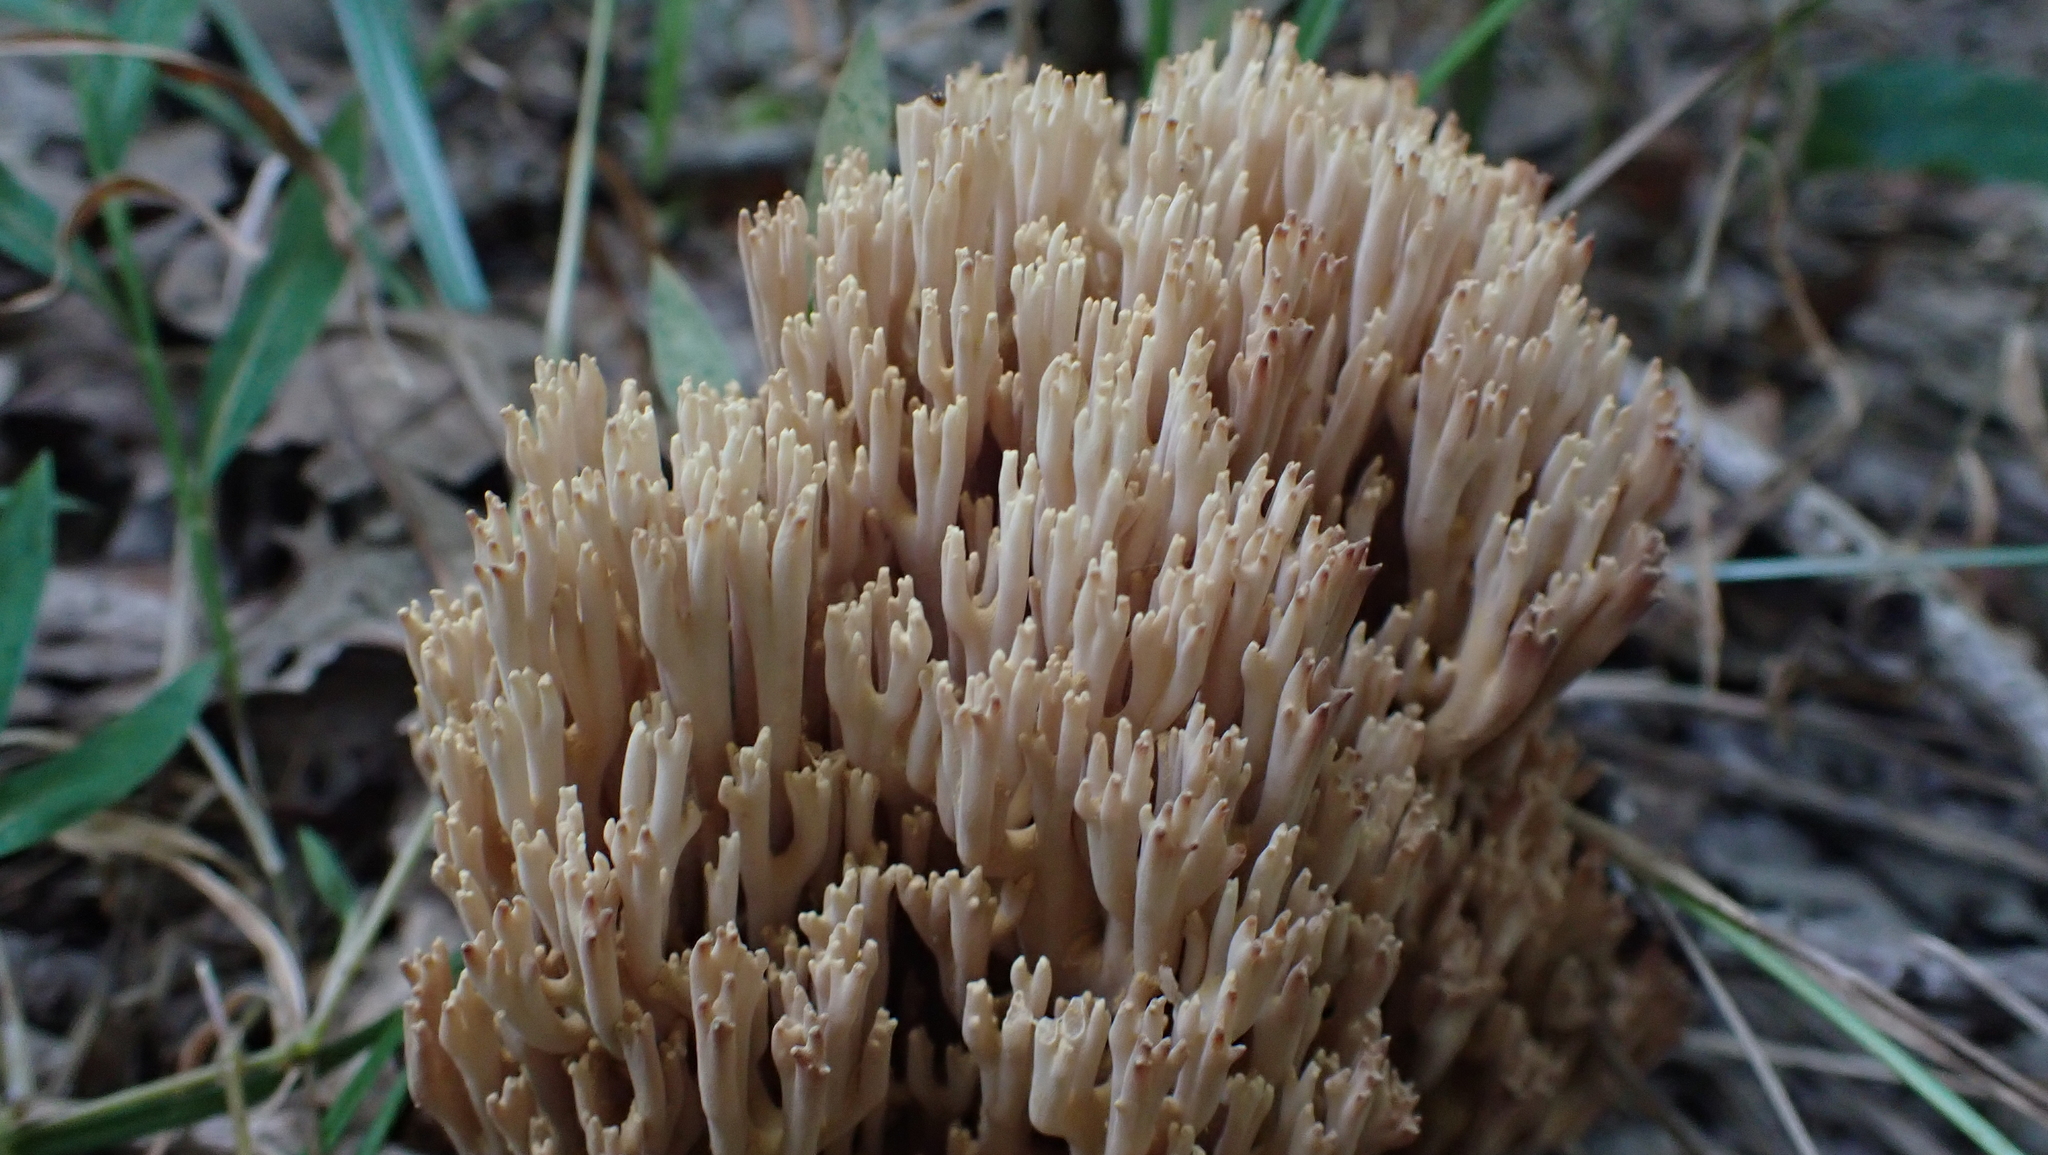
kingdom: Fungi
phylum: Basidiomycota
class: Agaricomycetes
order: Gomphales
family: Gomphaceae
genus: Ramaria
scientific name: Ramaria stricta
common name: Upright coral
